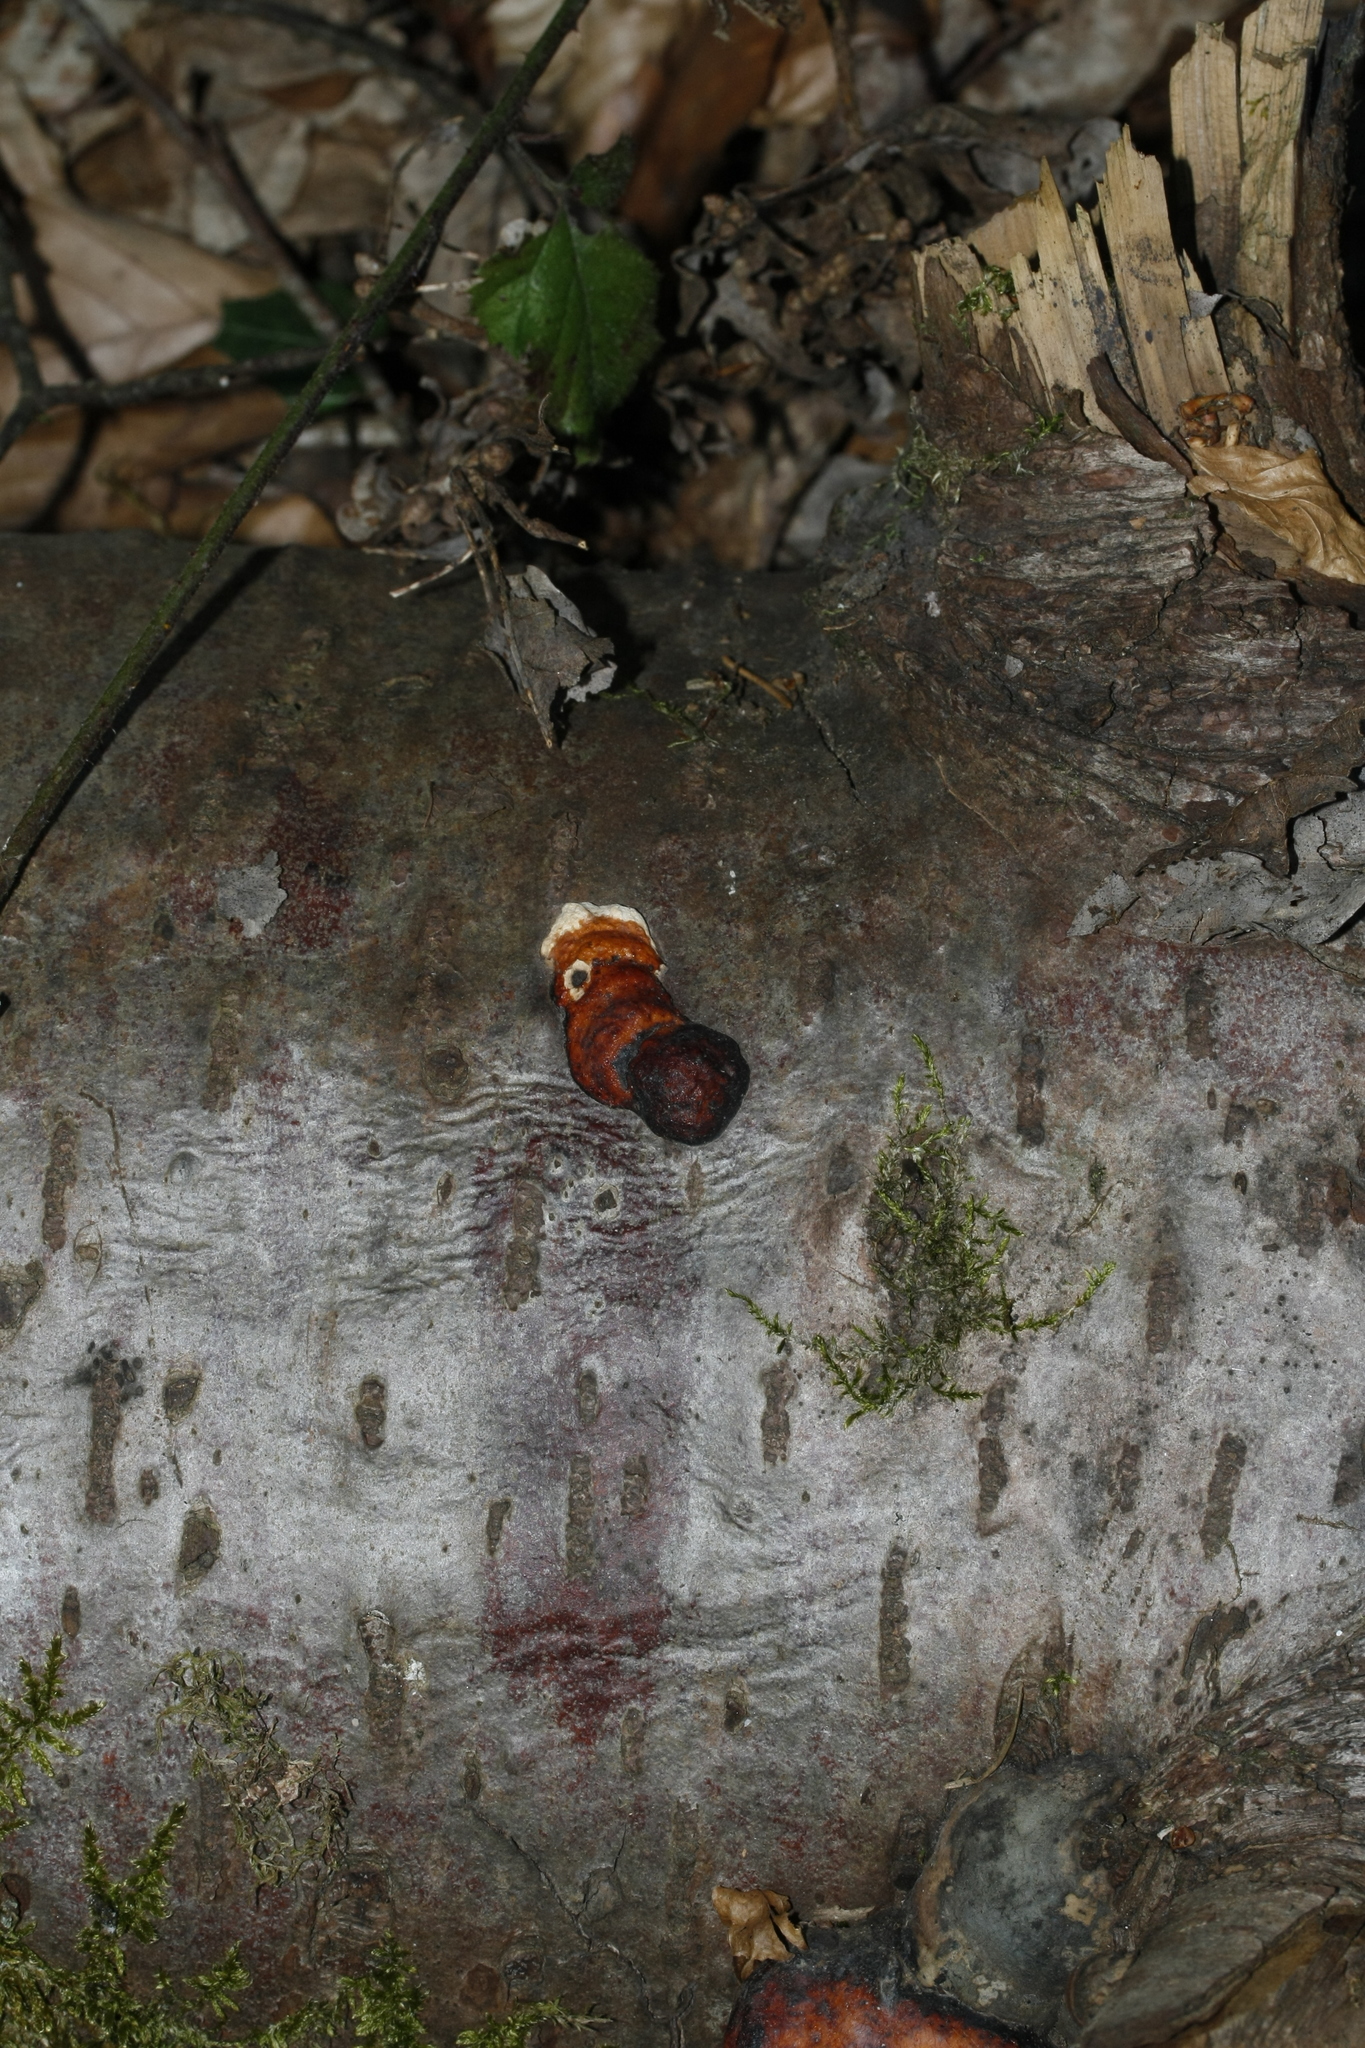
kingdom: Fungi
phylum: Basidiomycota
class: Agaricomycetes
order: Polyporales
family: Fomitopsidaceae
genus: Fomitopsis
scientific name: Fomitopsis pinicola
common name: Red-belted bracket
